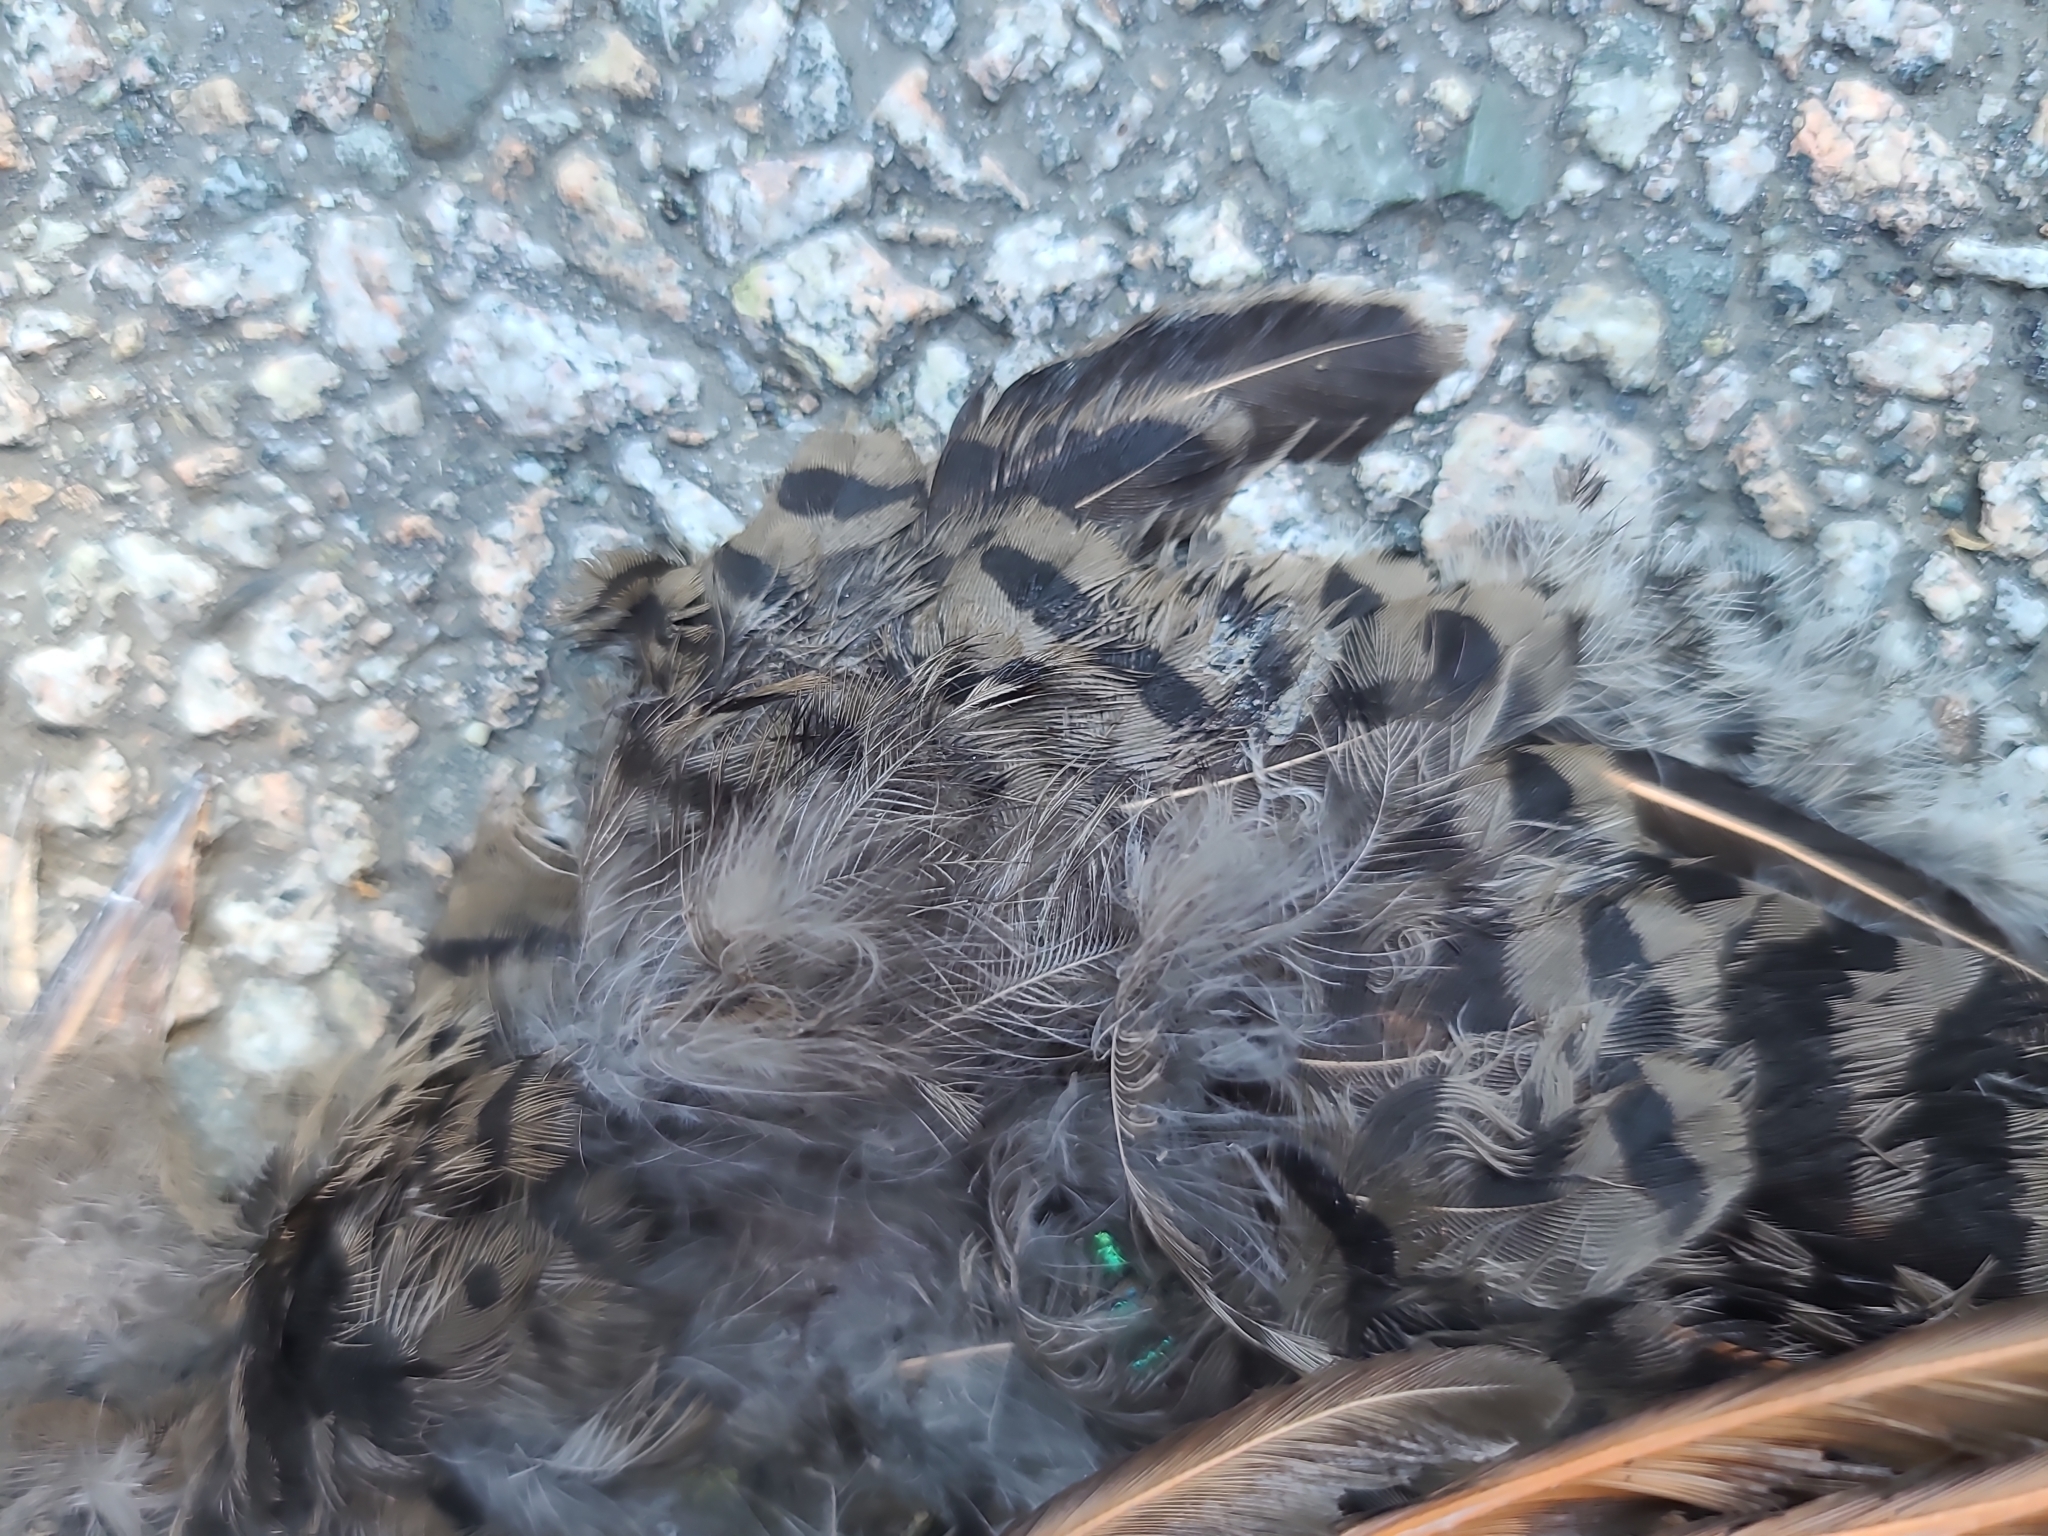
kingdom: Animalia
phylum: Chordata
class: Aves
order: Piciformes
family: Picidae
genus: Colaptes
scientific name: Colaptes auratus
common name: Northern flicker
